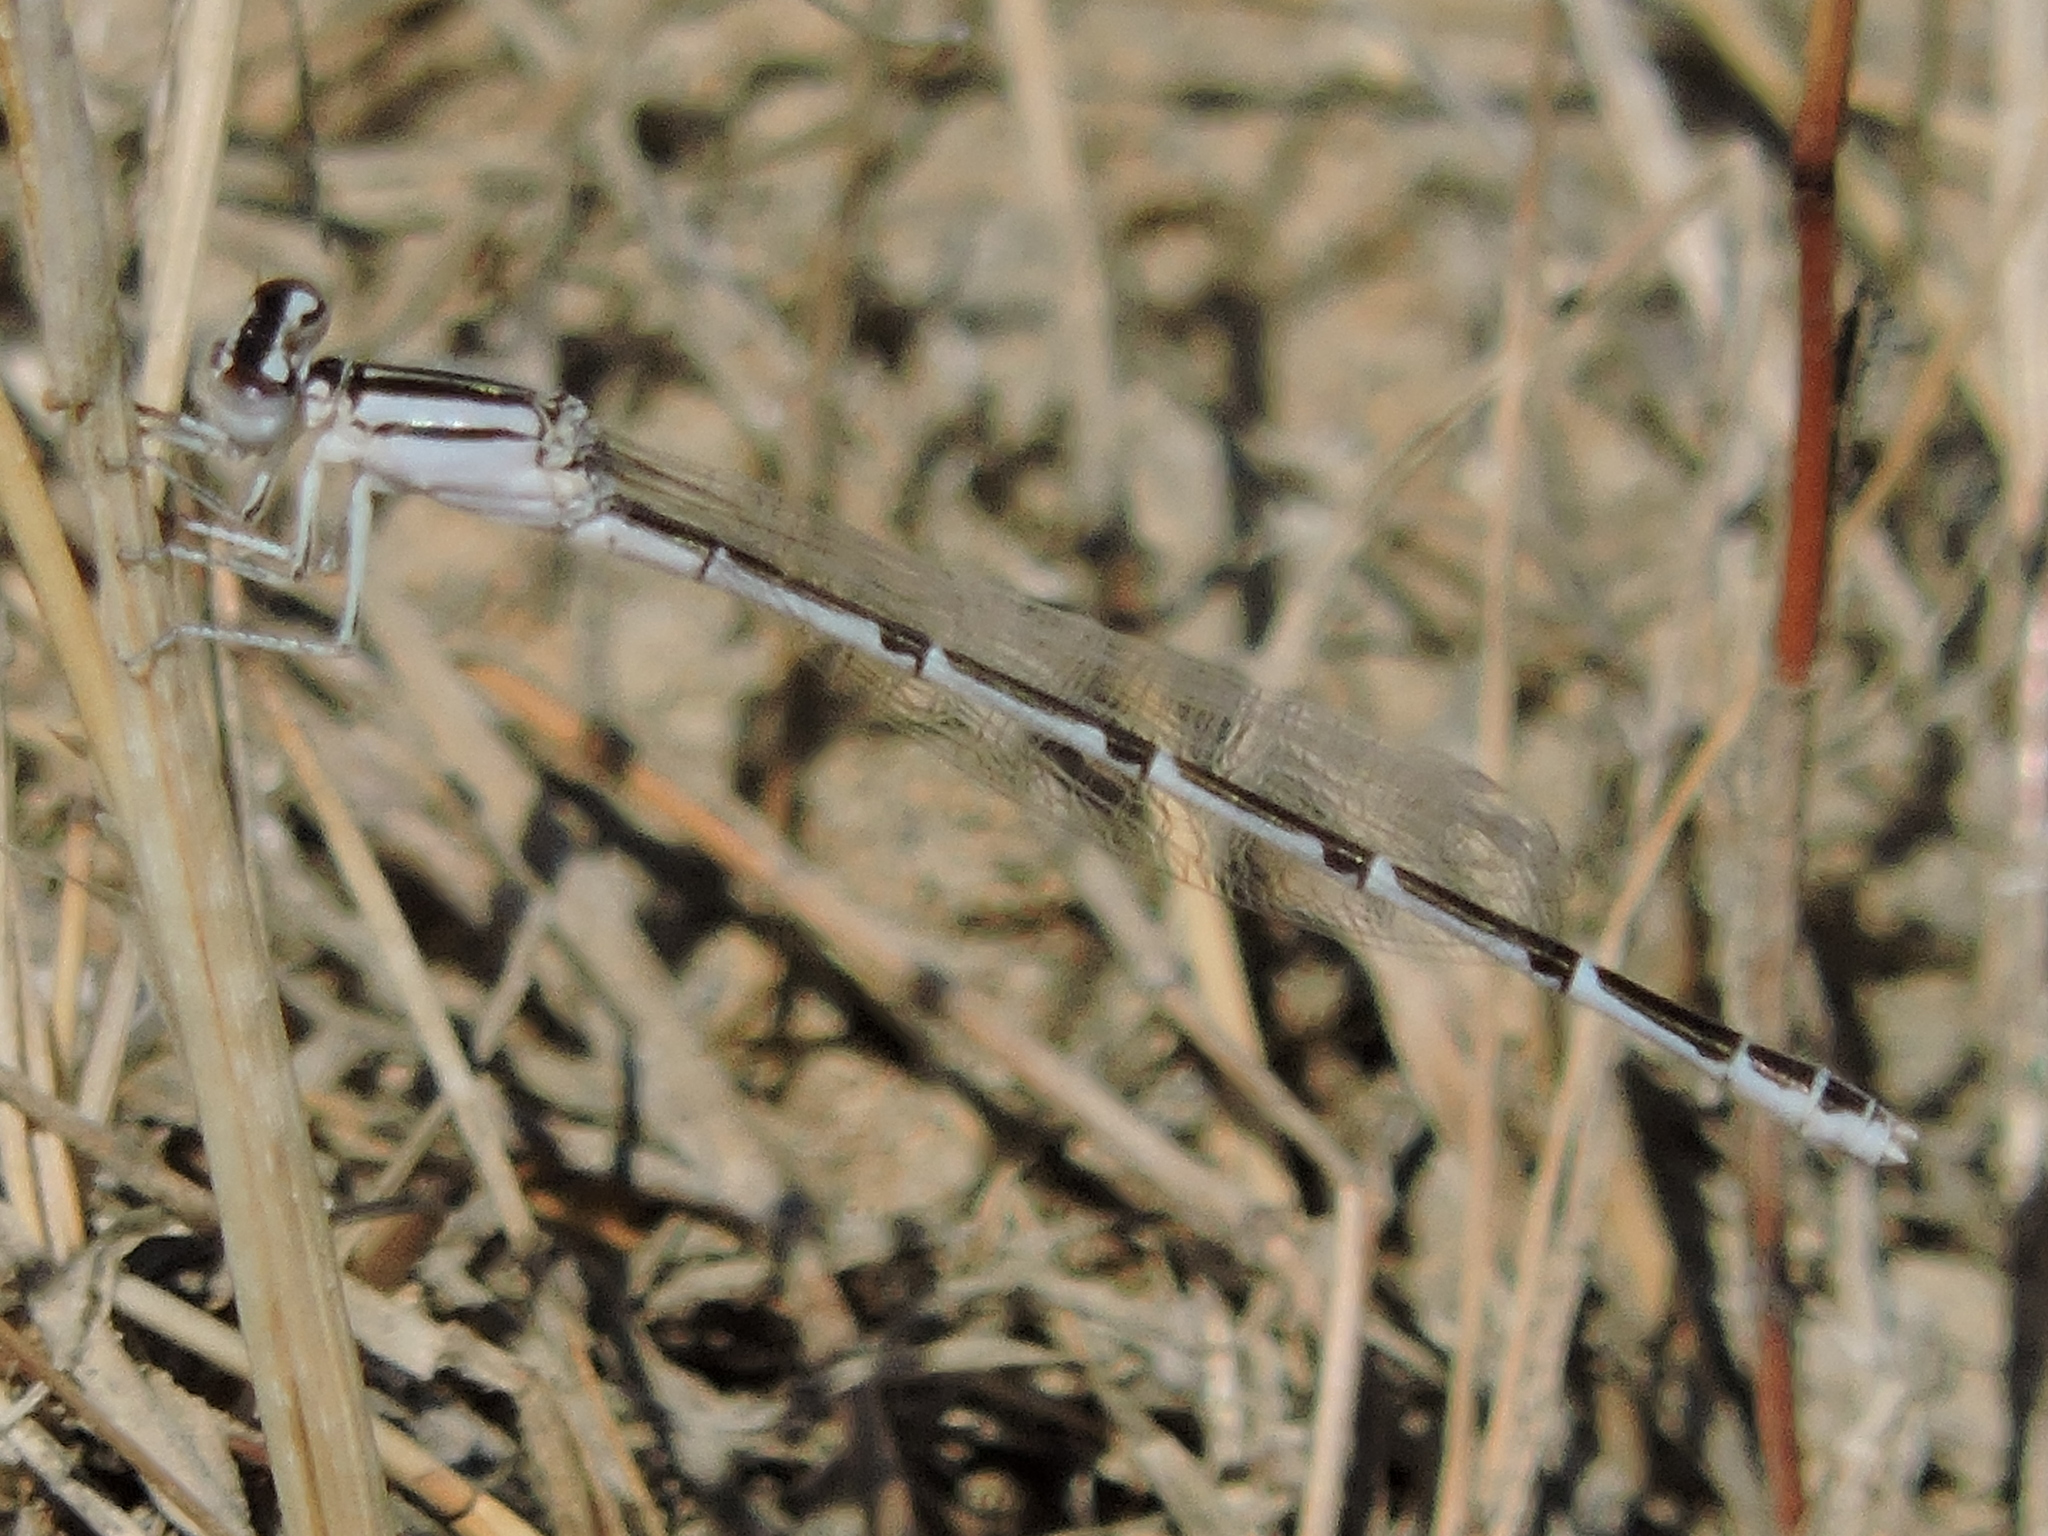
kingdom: Animalia
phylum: Arthropoda
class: Insecta
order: Odonata
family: Coenagrionidae
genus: Enallagma
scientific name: Enallagma civile
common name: Damselfly
